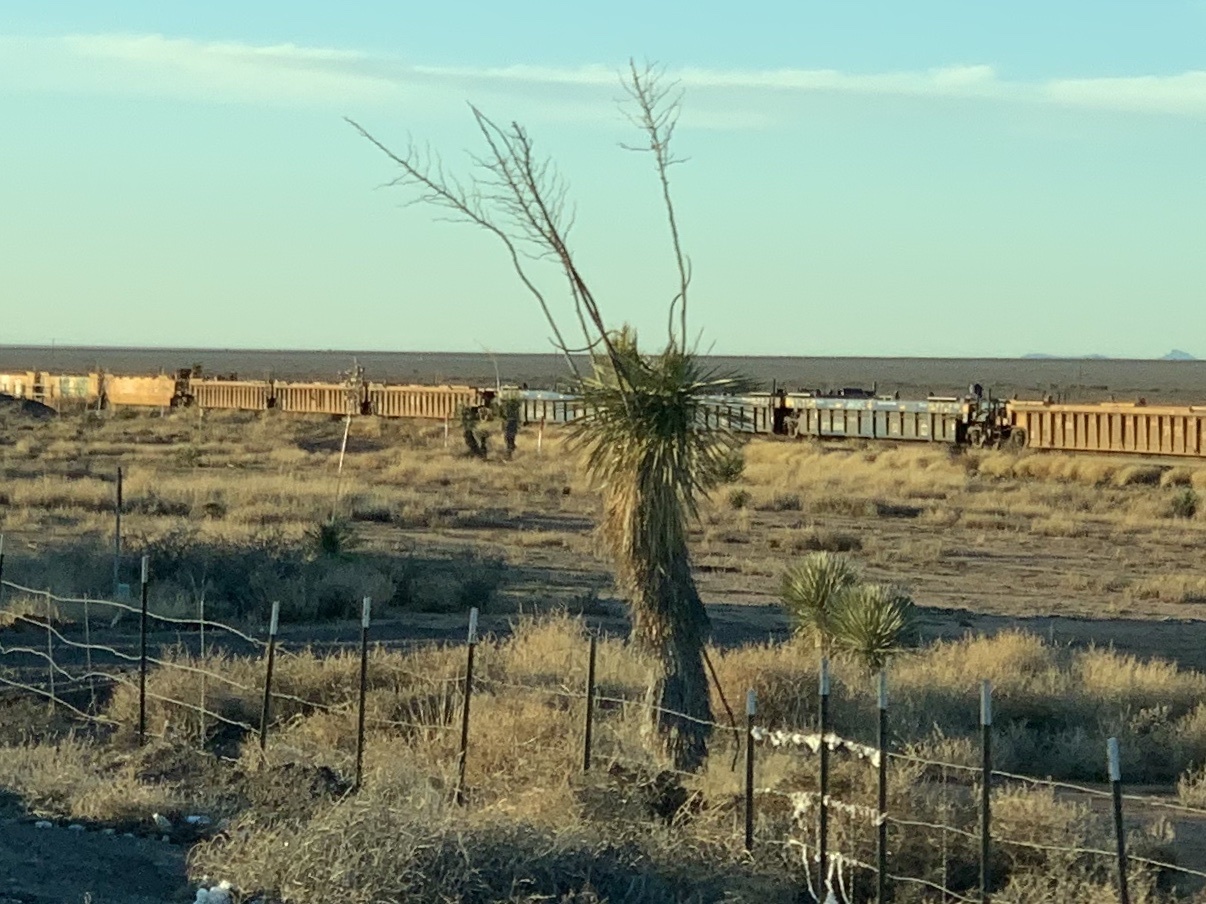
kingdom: Plantae
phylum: Tracheophyta
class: Liliopsida
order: Asparagales
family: Asparagaceae
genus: Yucca
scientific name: Yucca elata
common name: Palmella
